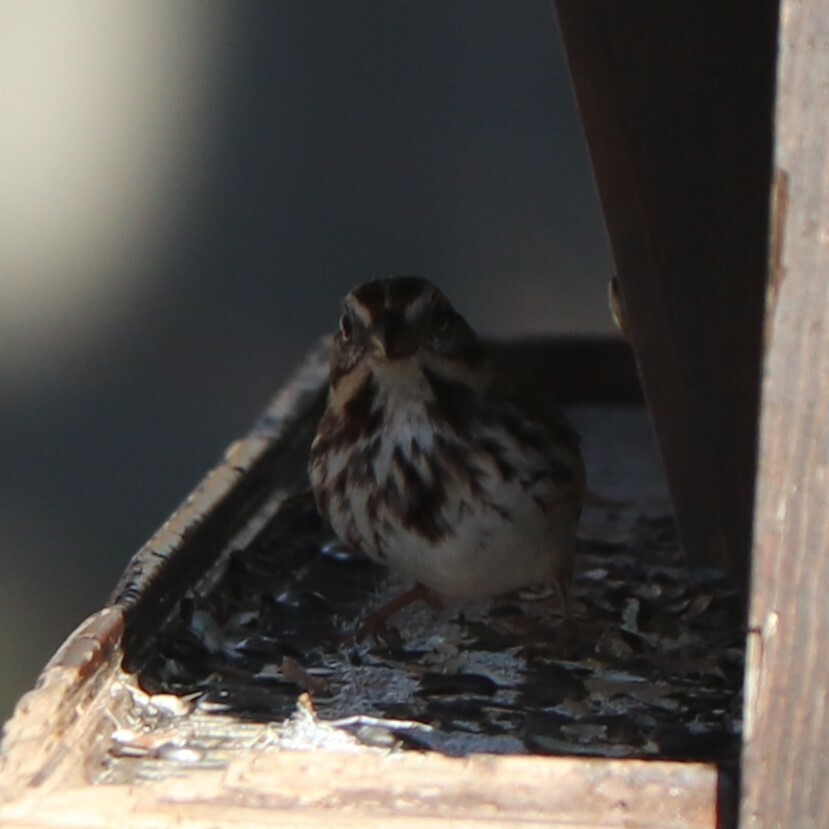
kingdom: Animalia
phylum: Chordata
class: Aves
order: Passeriformes
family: Passerellidae
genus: Melospiza
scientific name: Melospiza melodia
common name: Song sparrow
